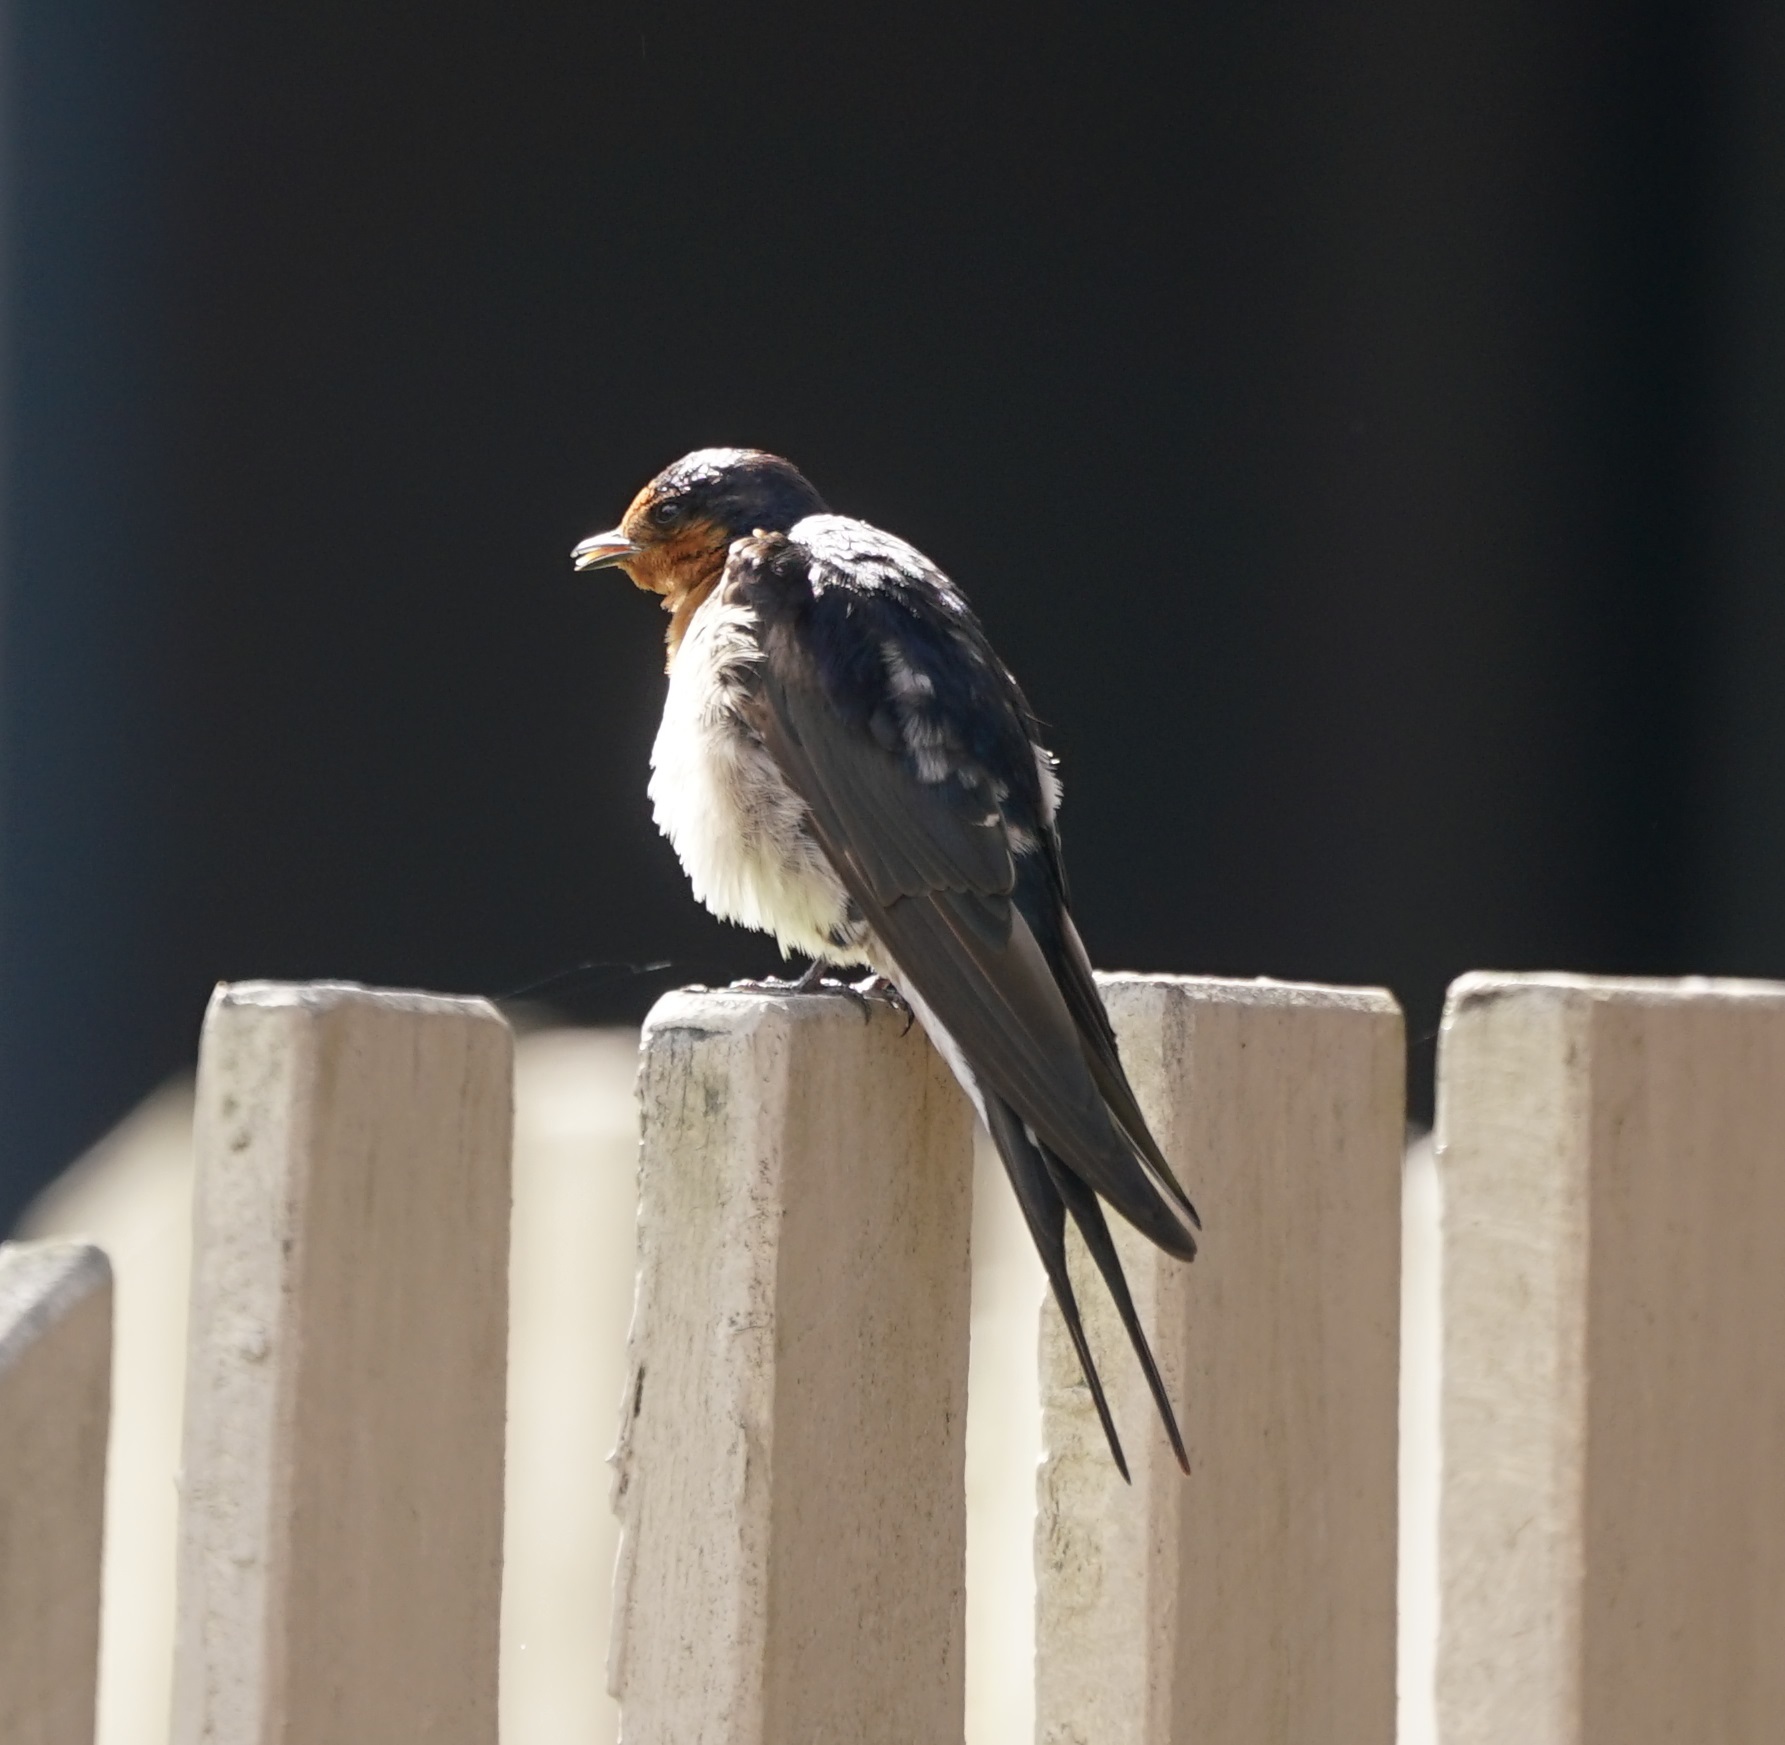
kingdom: Animalia
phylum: Chordata
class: Aves
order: Passeriformes
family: Hirundinidae
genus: Hirundo
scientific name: Hirundo neoxena
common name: Welcome swallow
